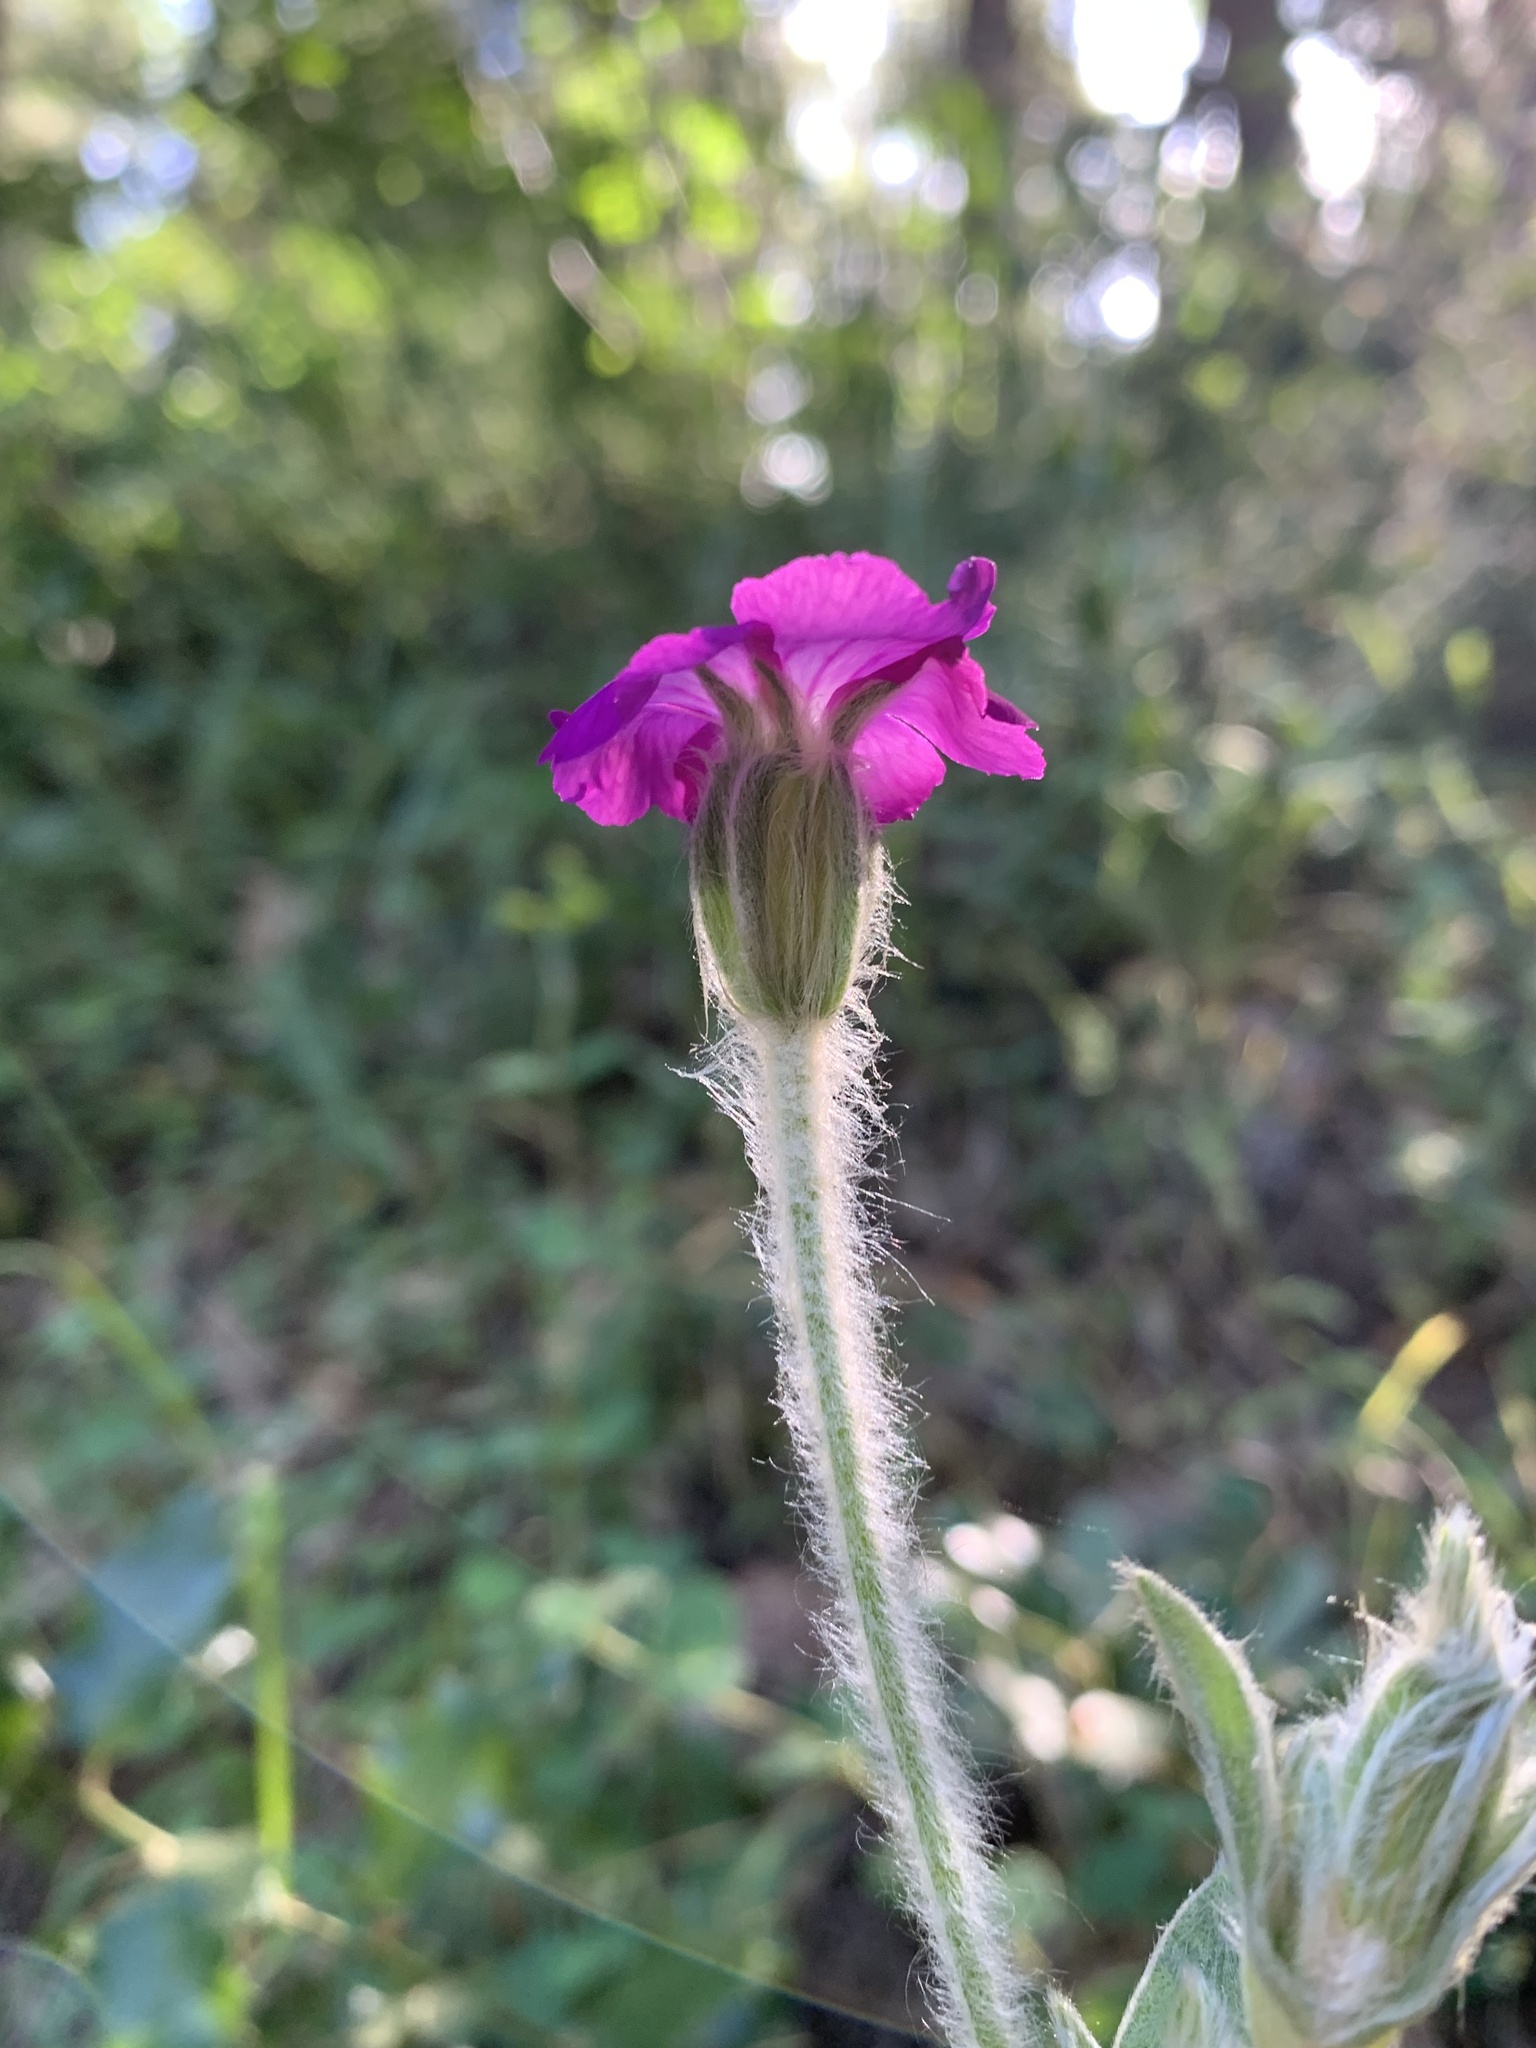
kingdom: Plantae
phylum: Tracheophyta
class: Magnoliopsida
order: Caryophyllales
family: Caryophyllaceae
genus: Silene
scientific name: Silene coronaria
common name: Rose campion
